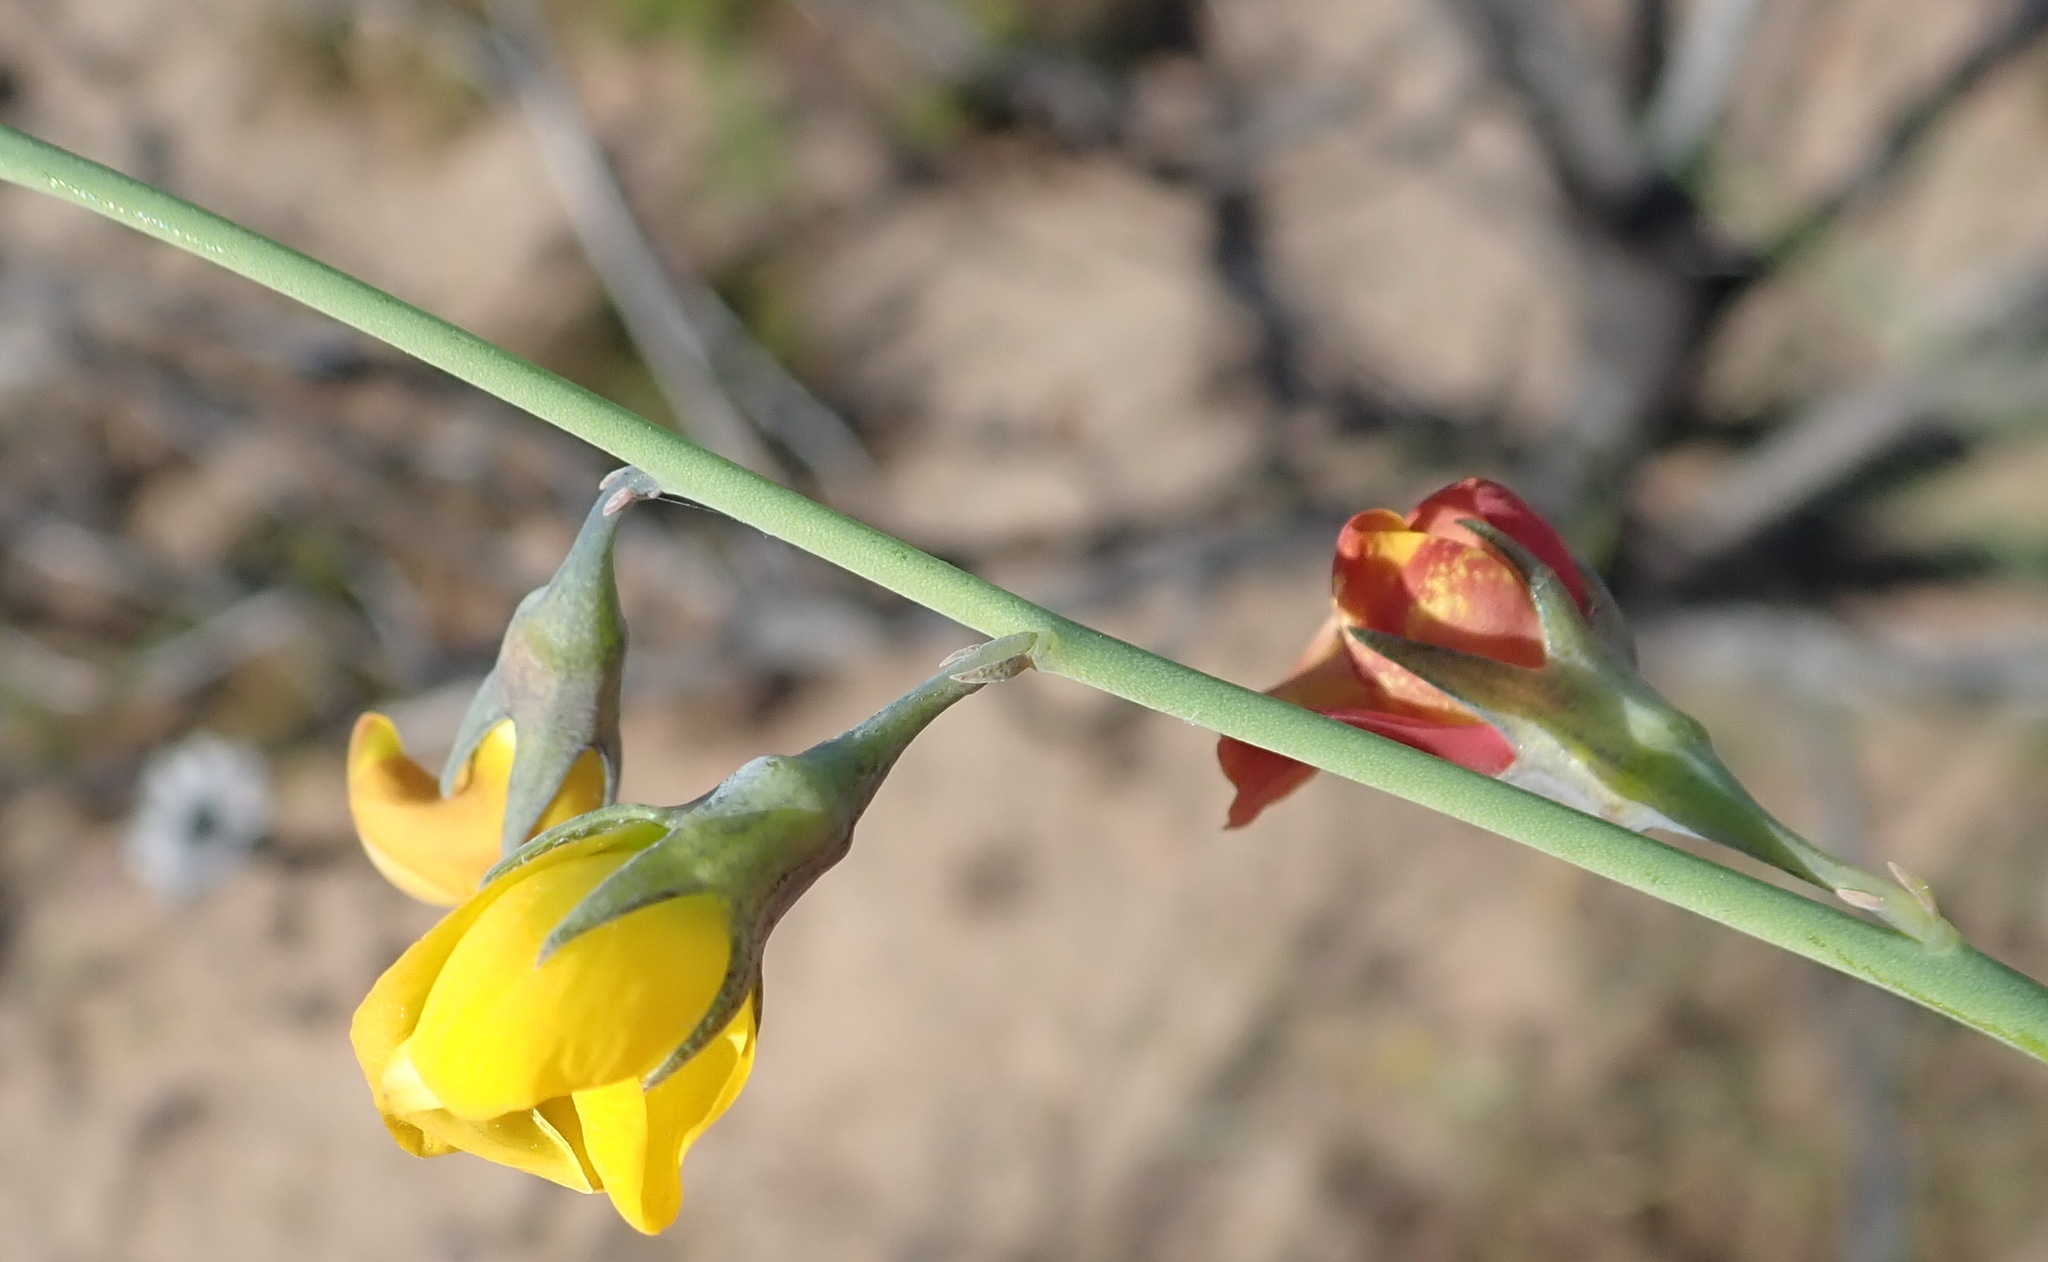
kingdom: Plantae
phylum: Tracheophyta
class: Magnoliopsida
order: Fabales
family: Fabaceae
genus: Lebeckia
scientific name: Lebeckia pauciflora
